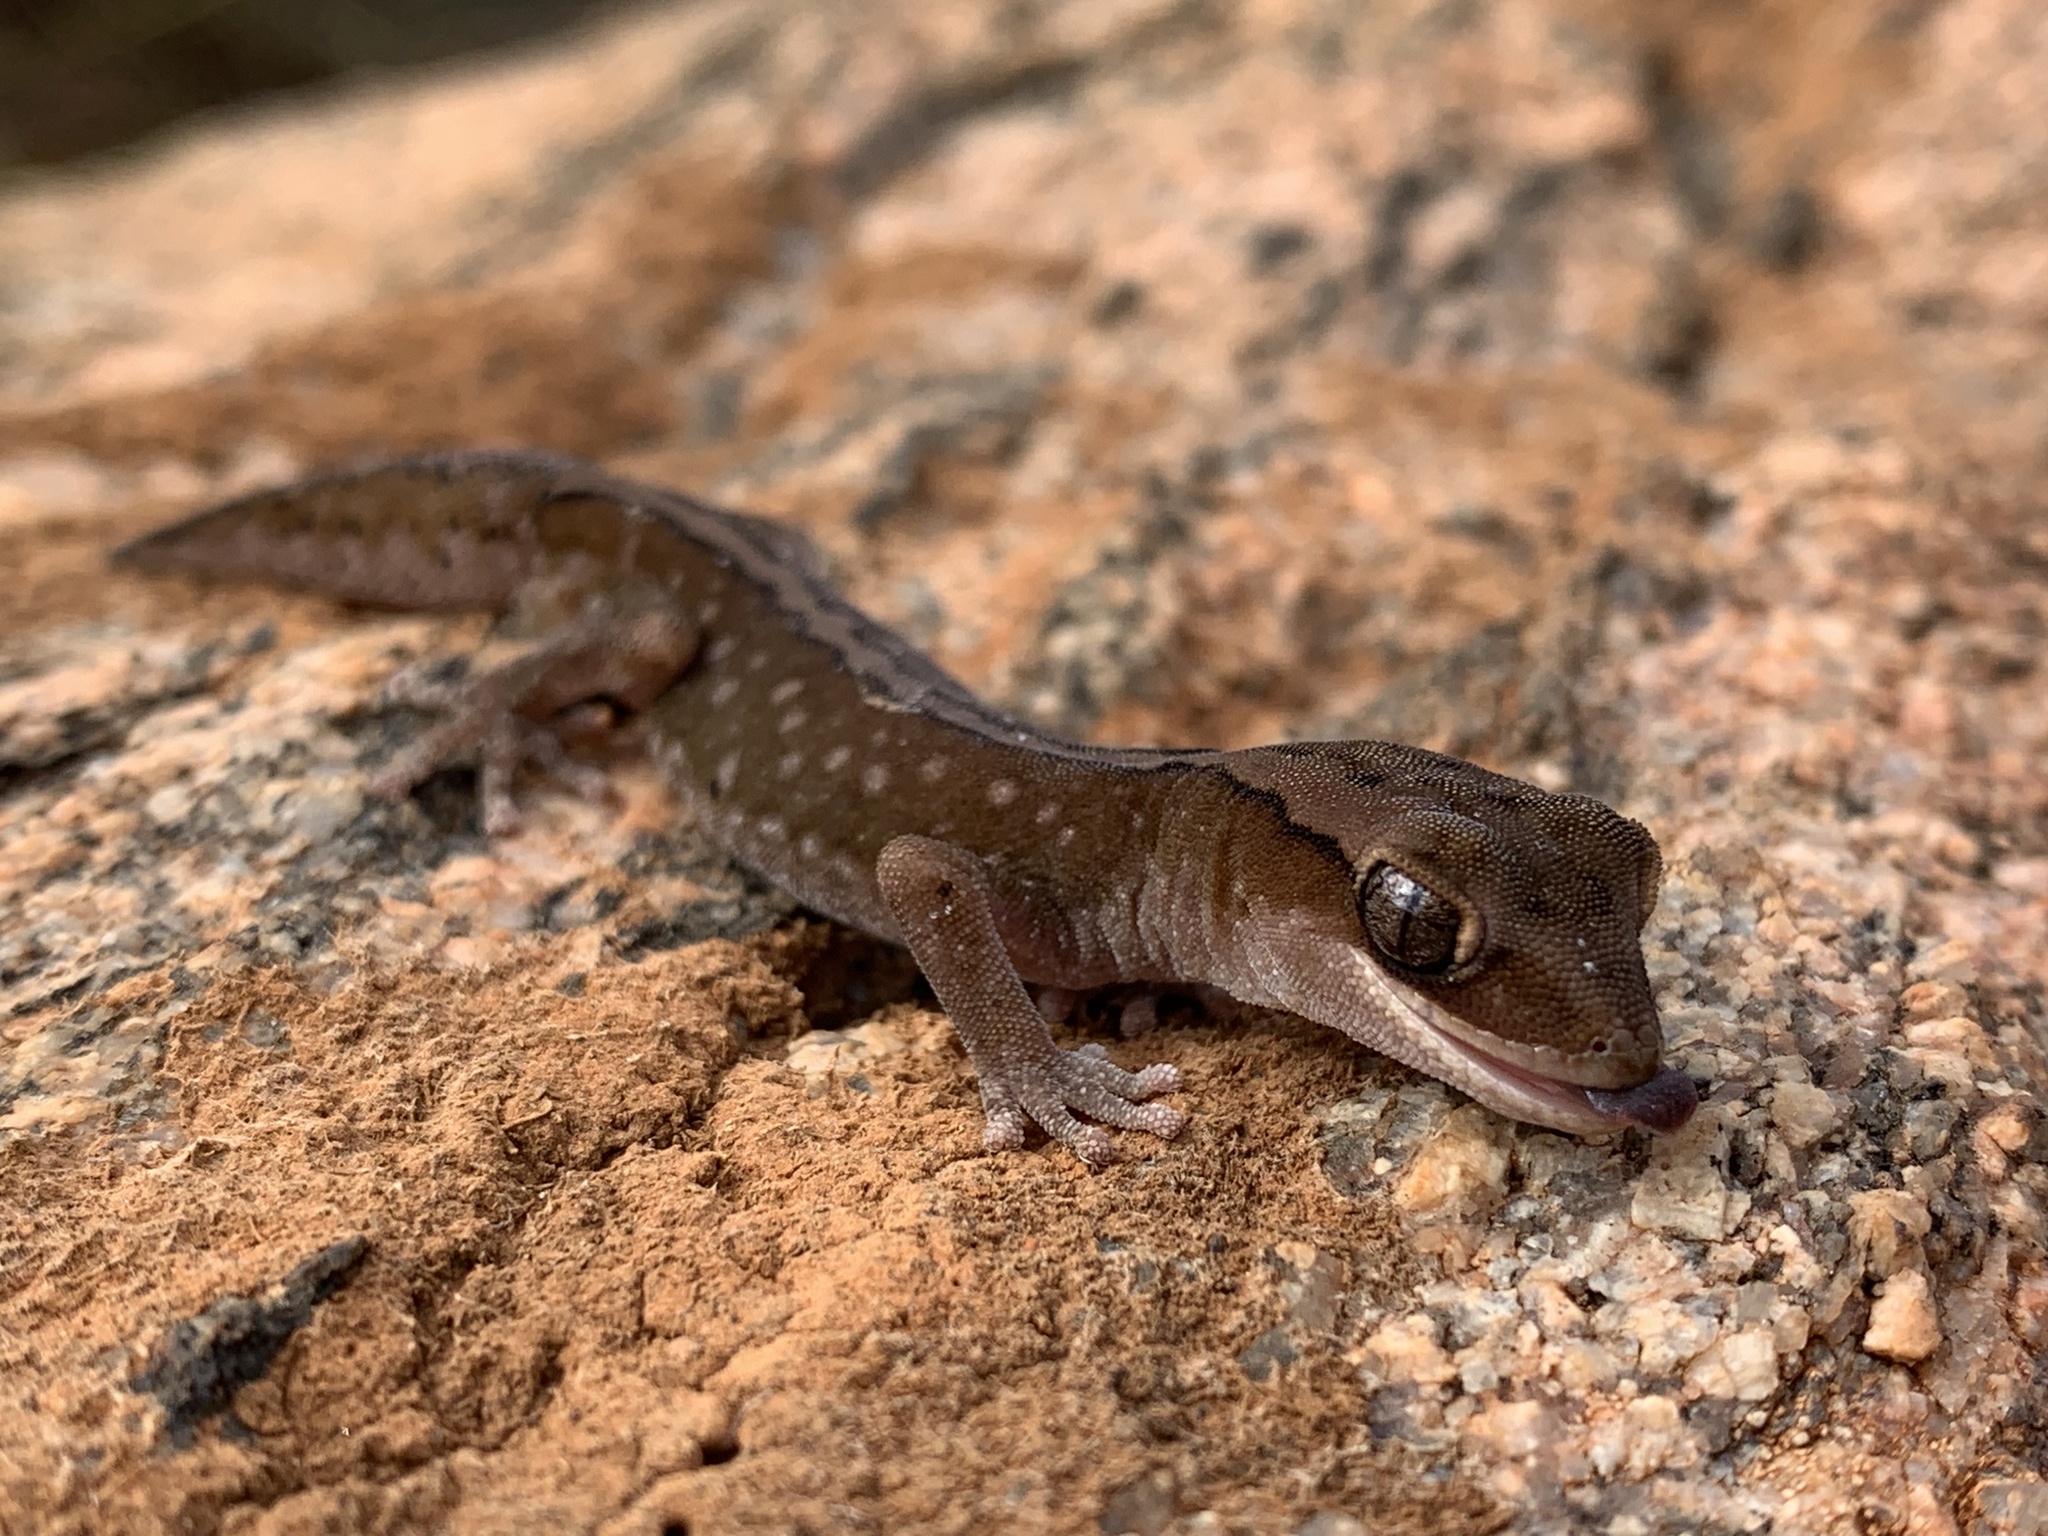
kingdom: Animalia
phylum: Chordata
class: Squamata
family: Diplodactylidae
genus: Diplodactylus
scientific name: Diplodactylus furcosus
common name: Ranges stone gecko
